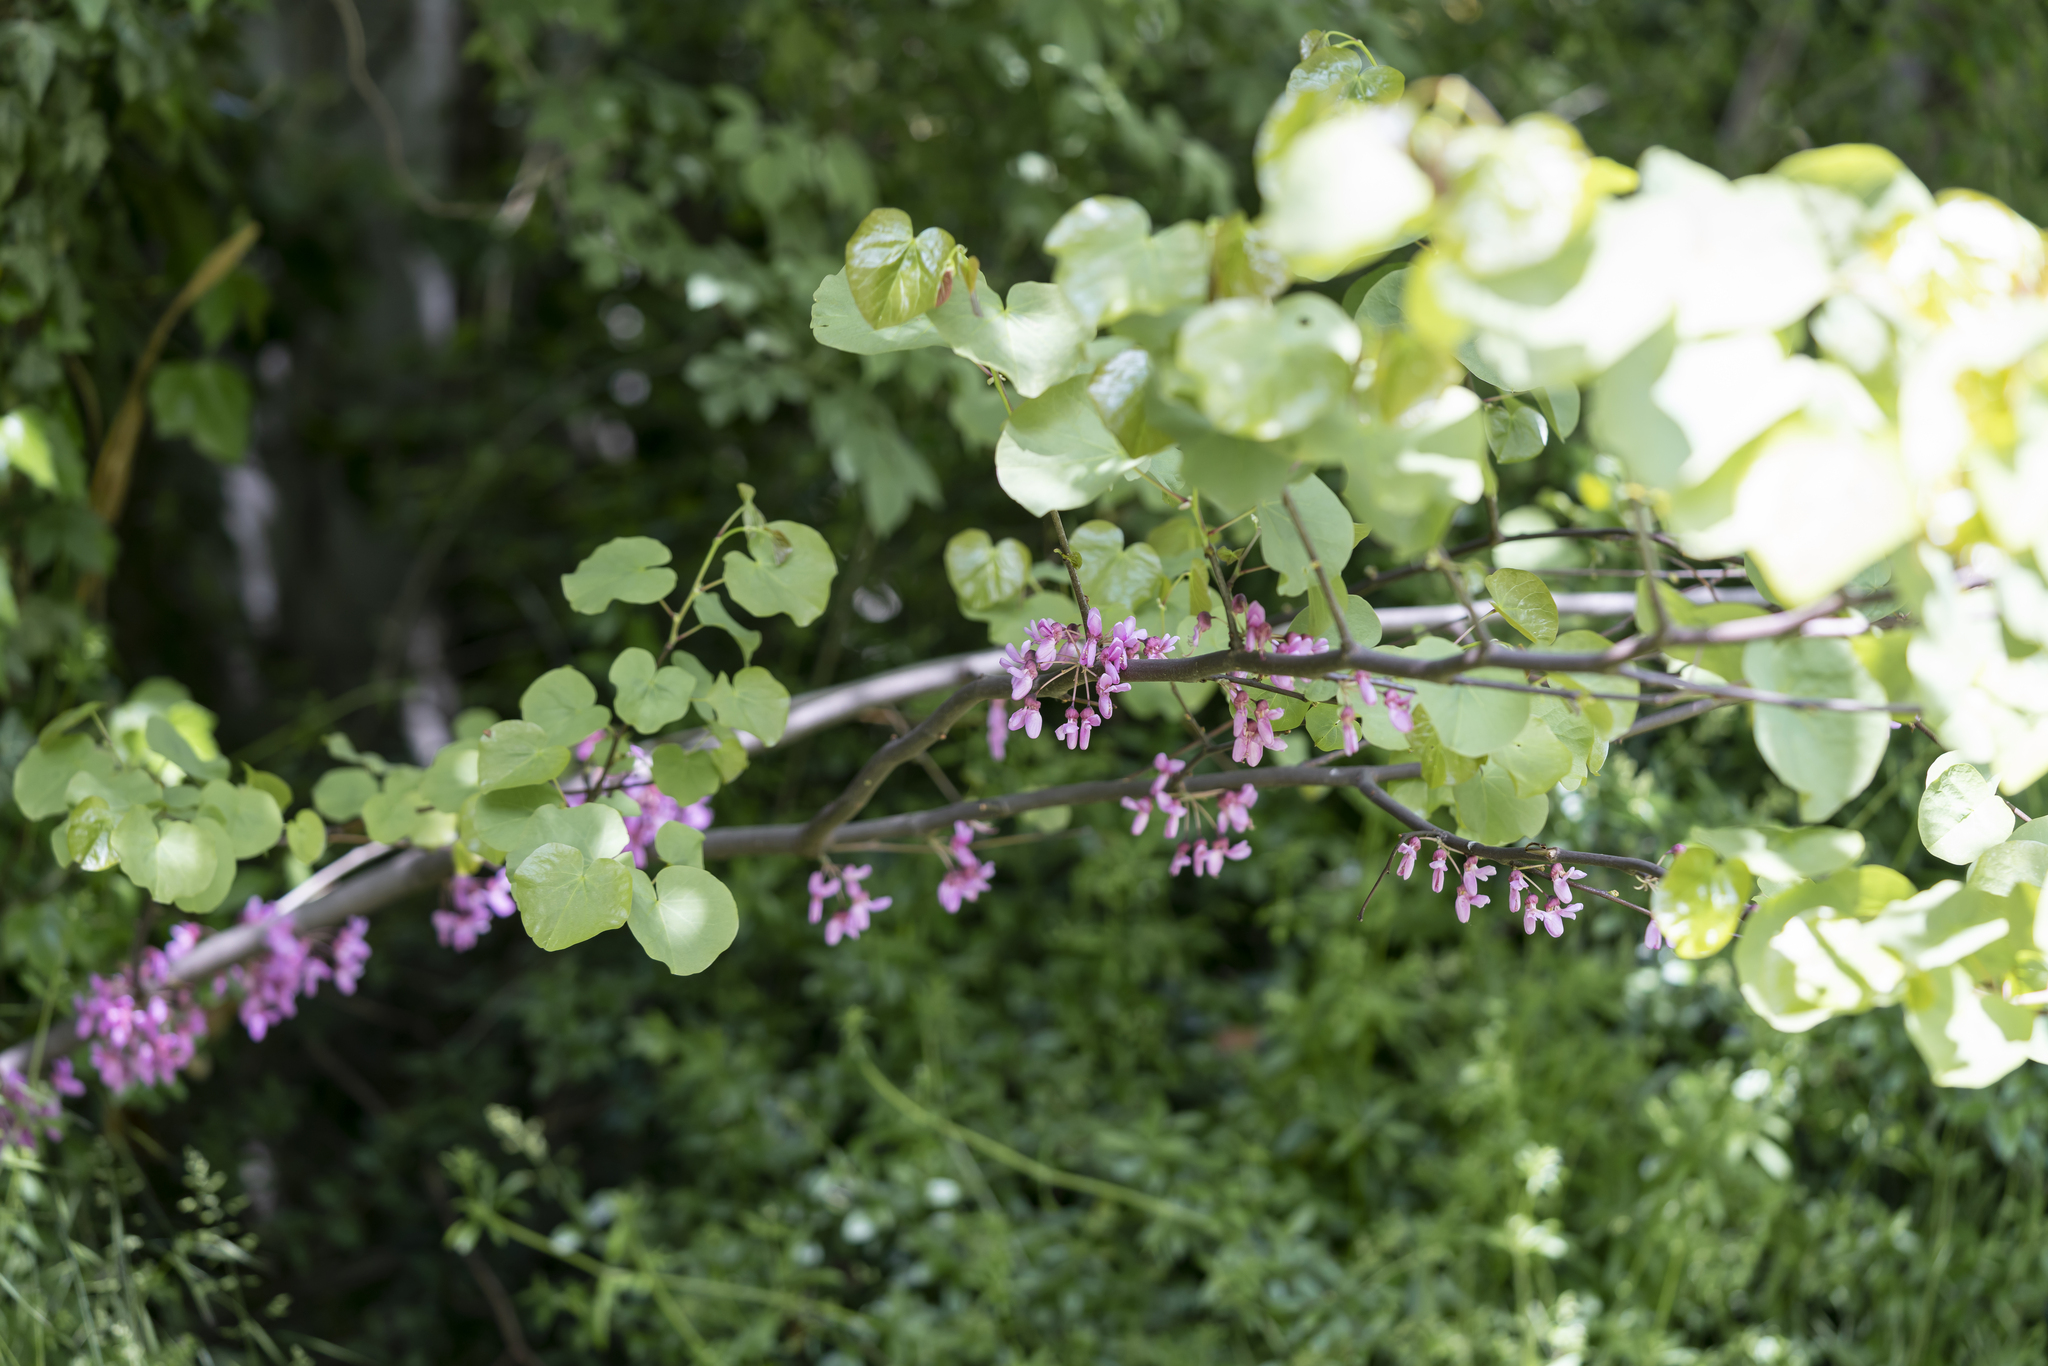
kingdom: Plantae
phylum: Tracheophyta
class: Magnoliopsida
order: Fabales
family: Fabaceae
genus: Cercis
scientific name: Cercis siliquastrum
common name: Judas tree
